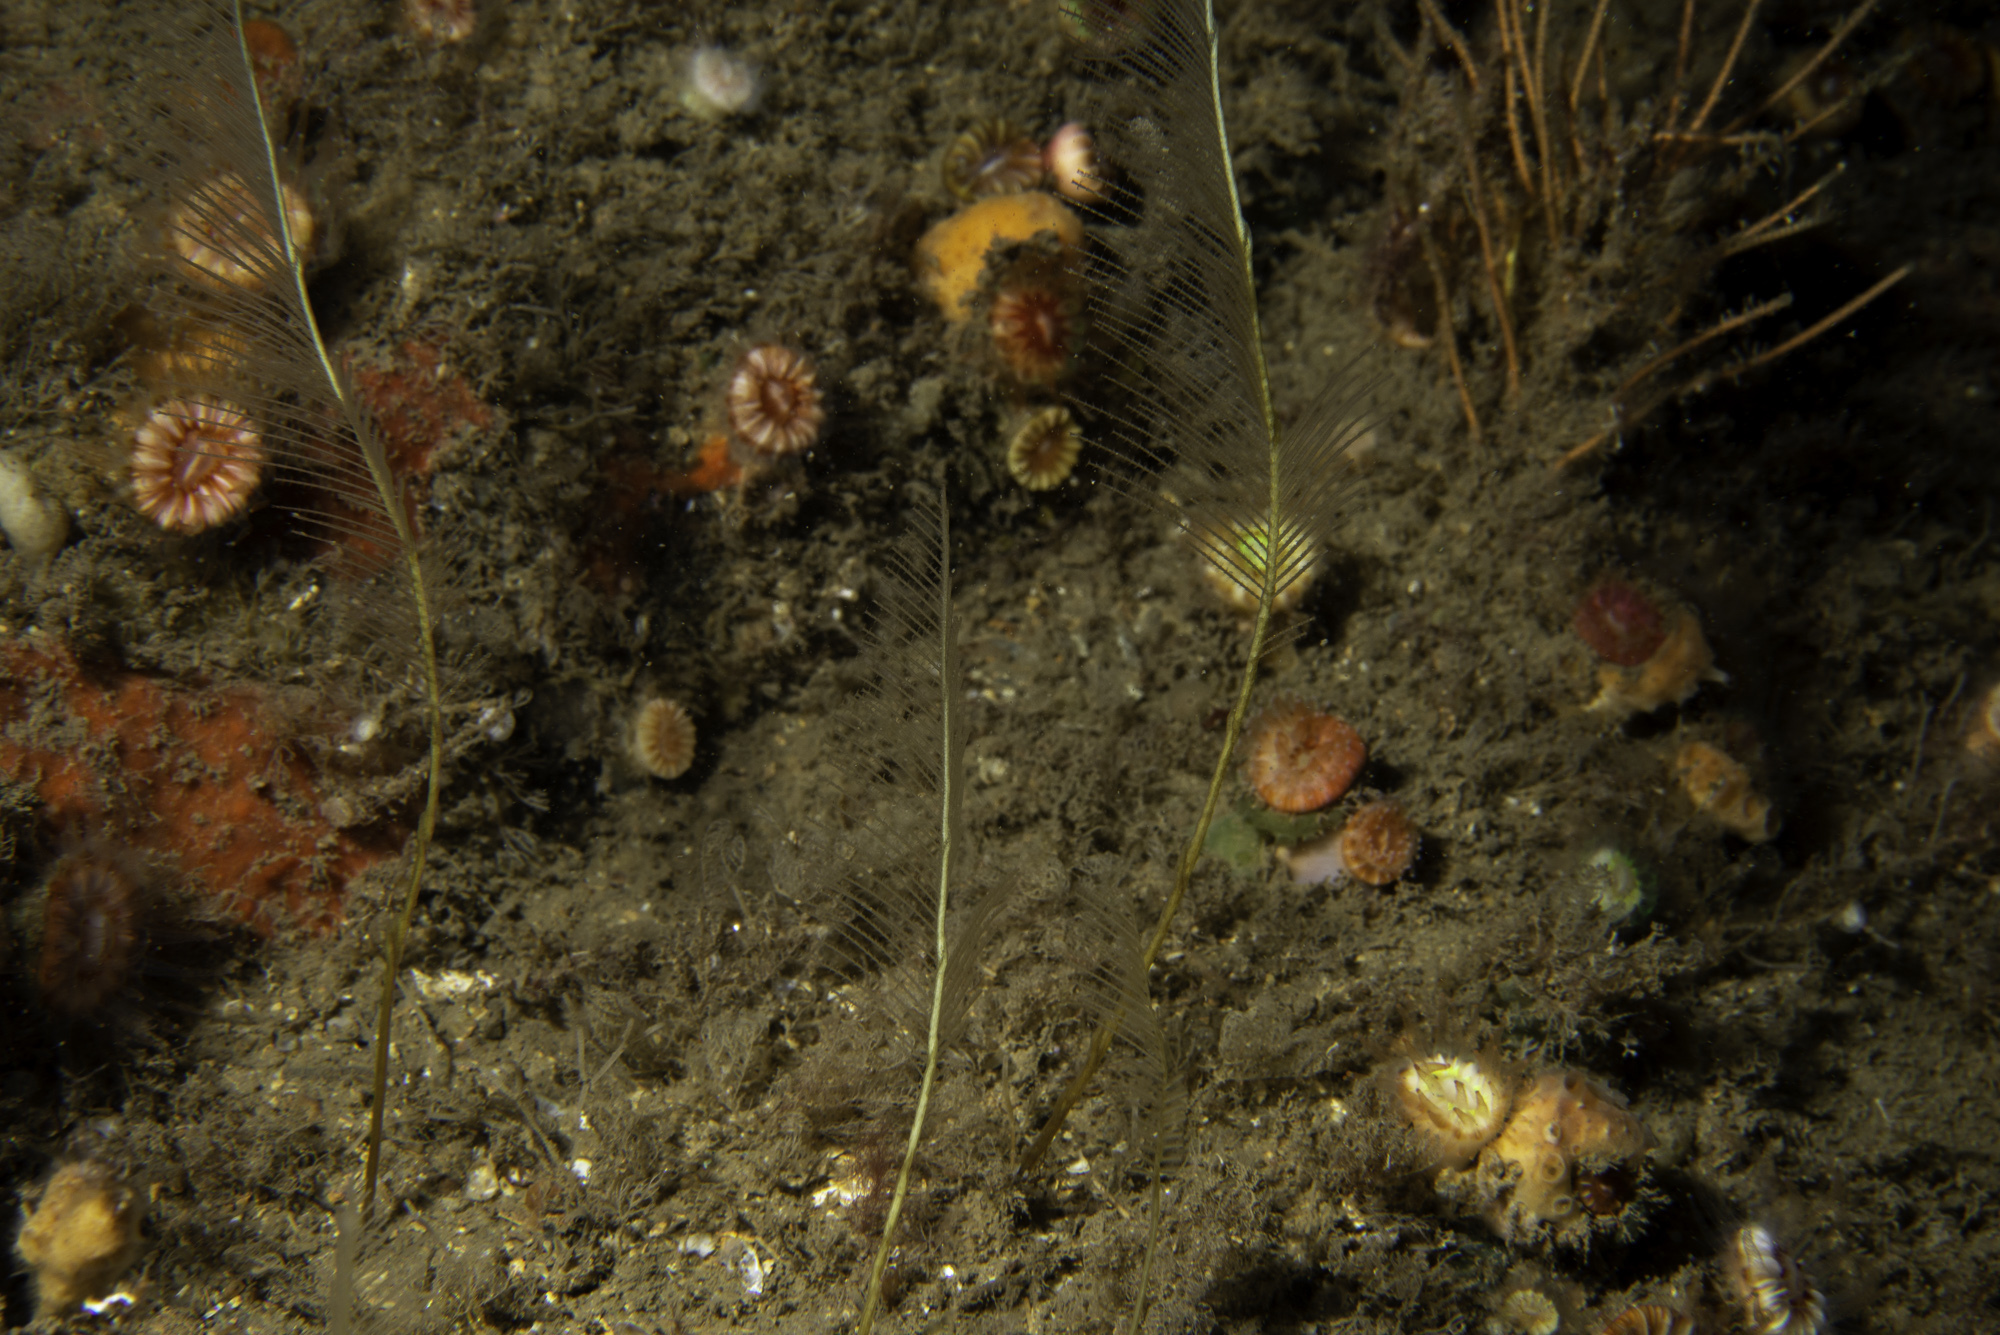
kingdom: Animalia
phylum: Cnidaria
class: Hydrozoa
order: Leptothecata
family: Aglaopheniidae
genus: Lytocarpia
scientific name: Lytocarpia myriophyllum
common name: Pheasant-tail hydroid
